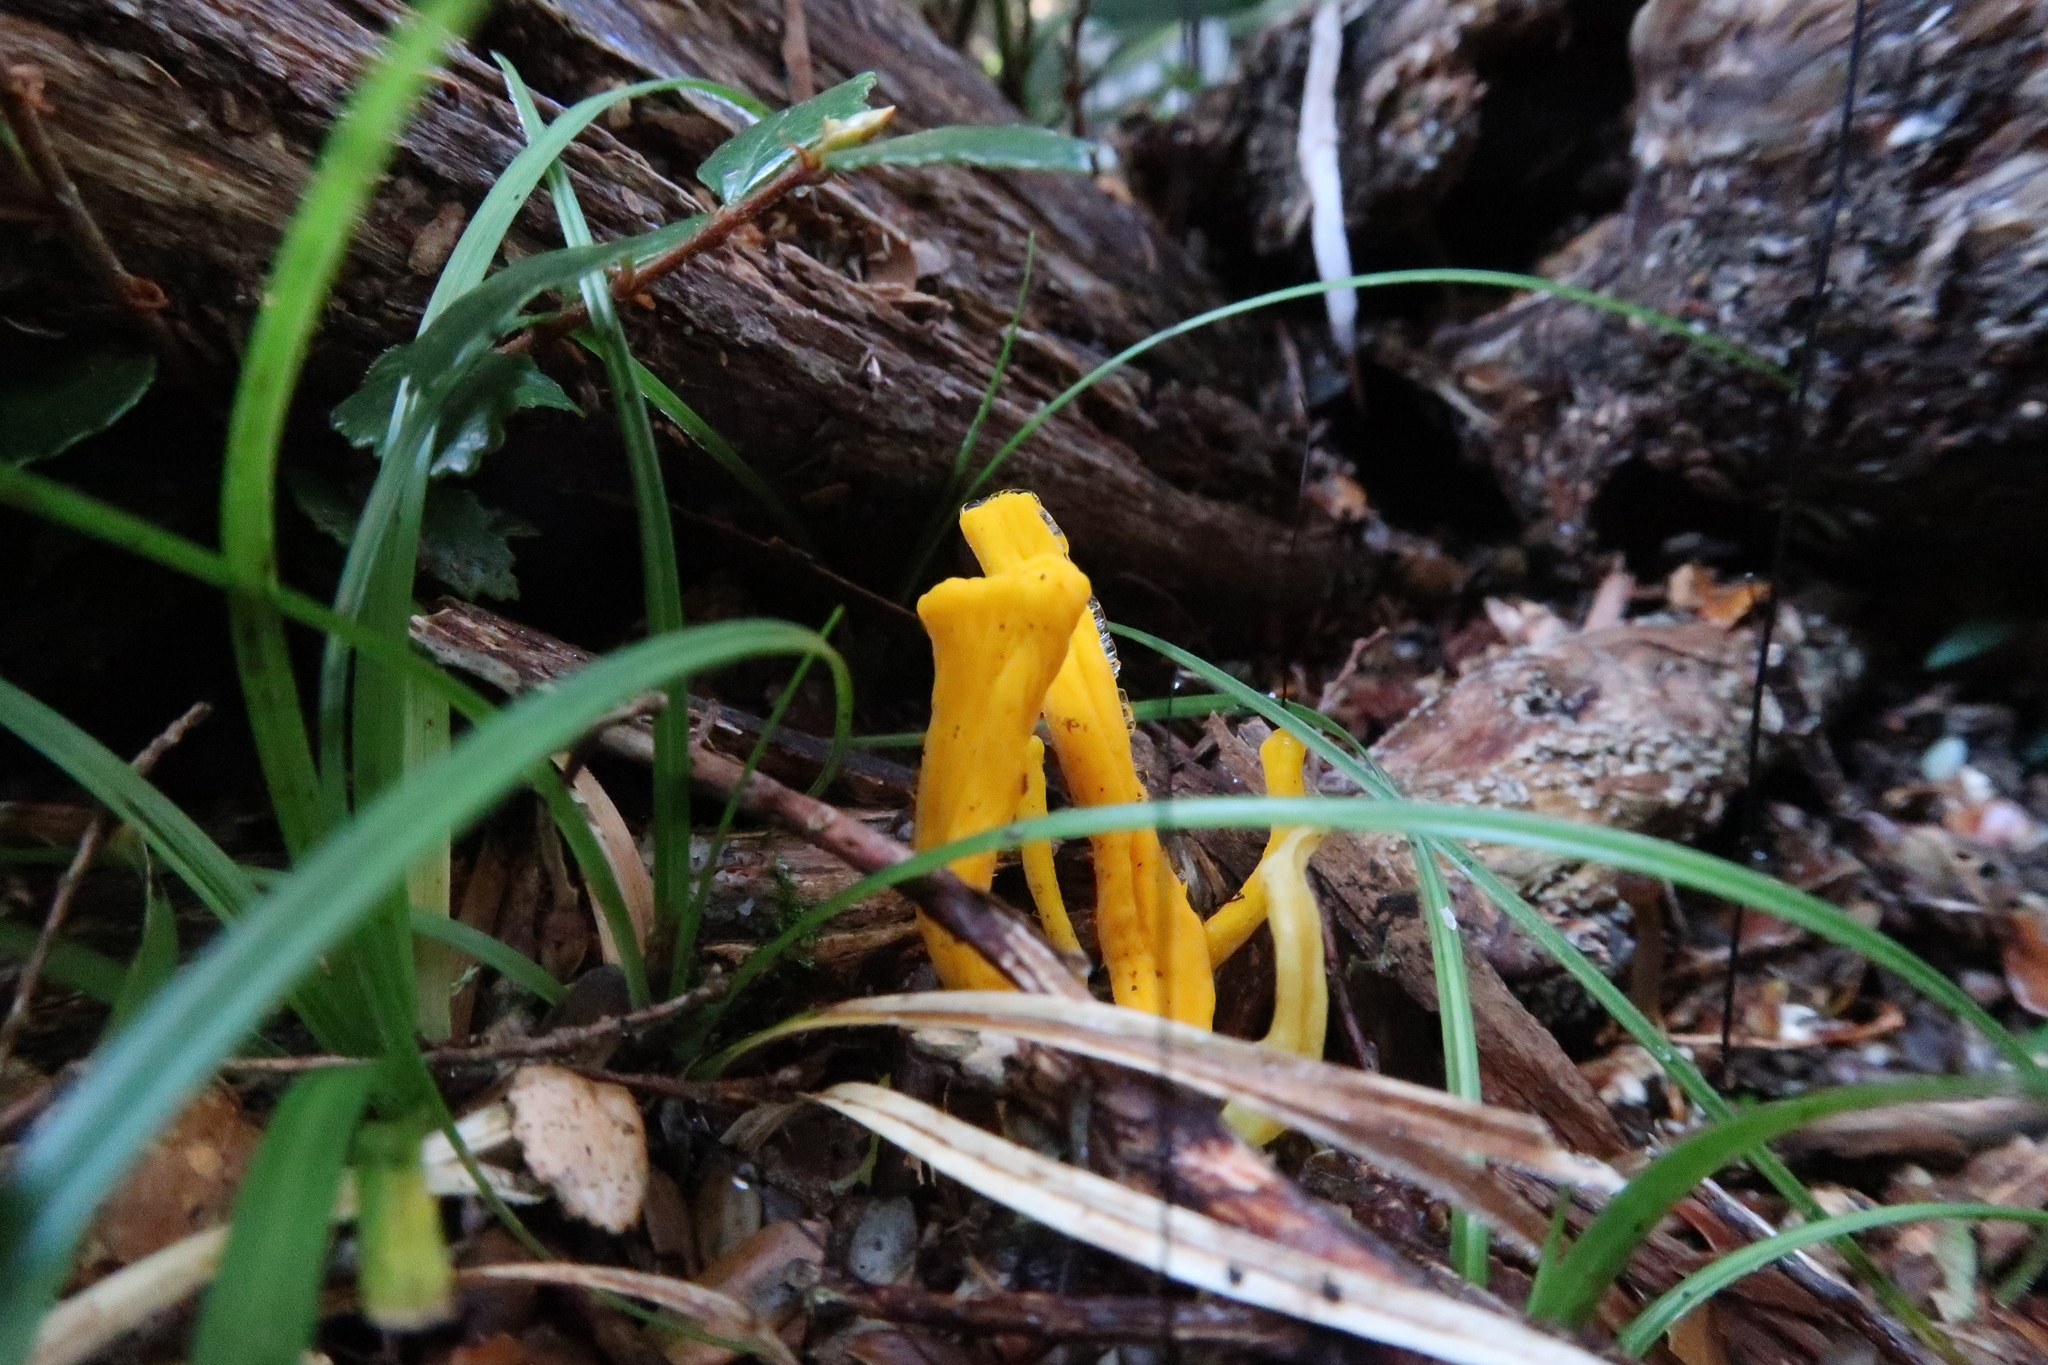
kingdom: Fungi
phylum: Basidiomycota
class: Agaricomycetes
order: Agaricales
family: Clavariaceae
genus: Clavulinopsis
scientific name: Clavulinopsis amoena
